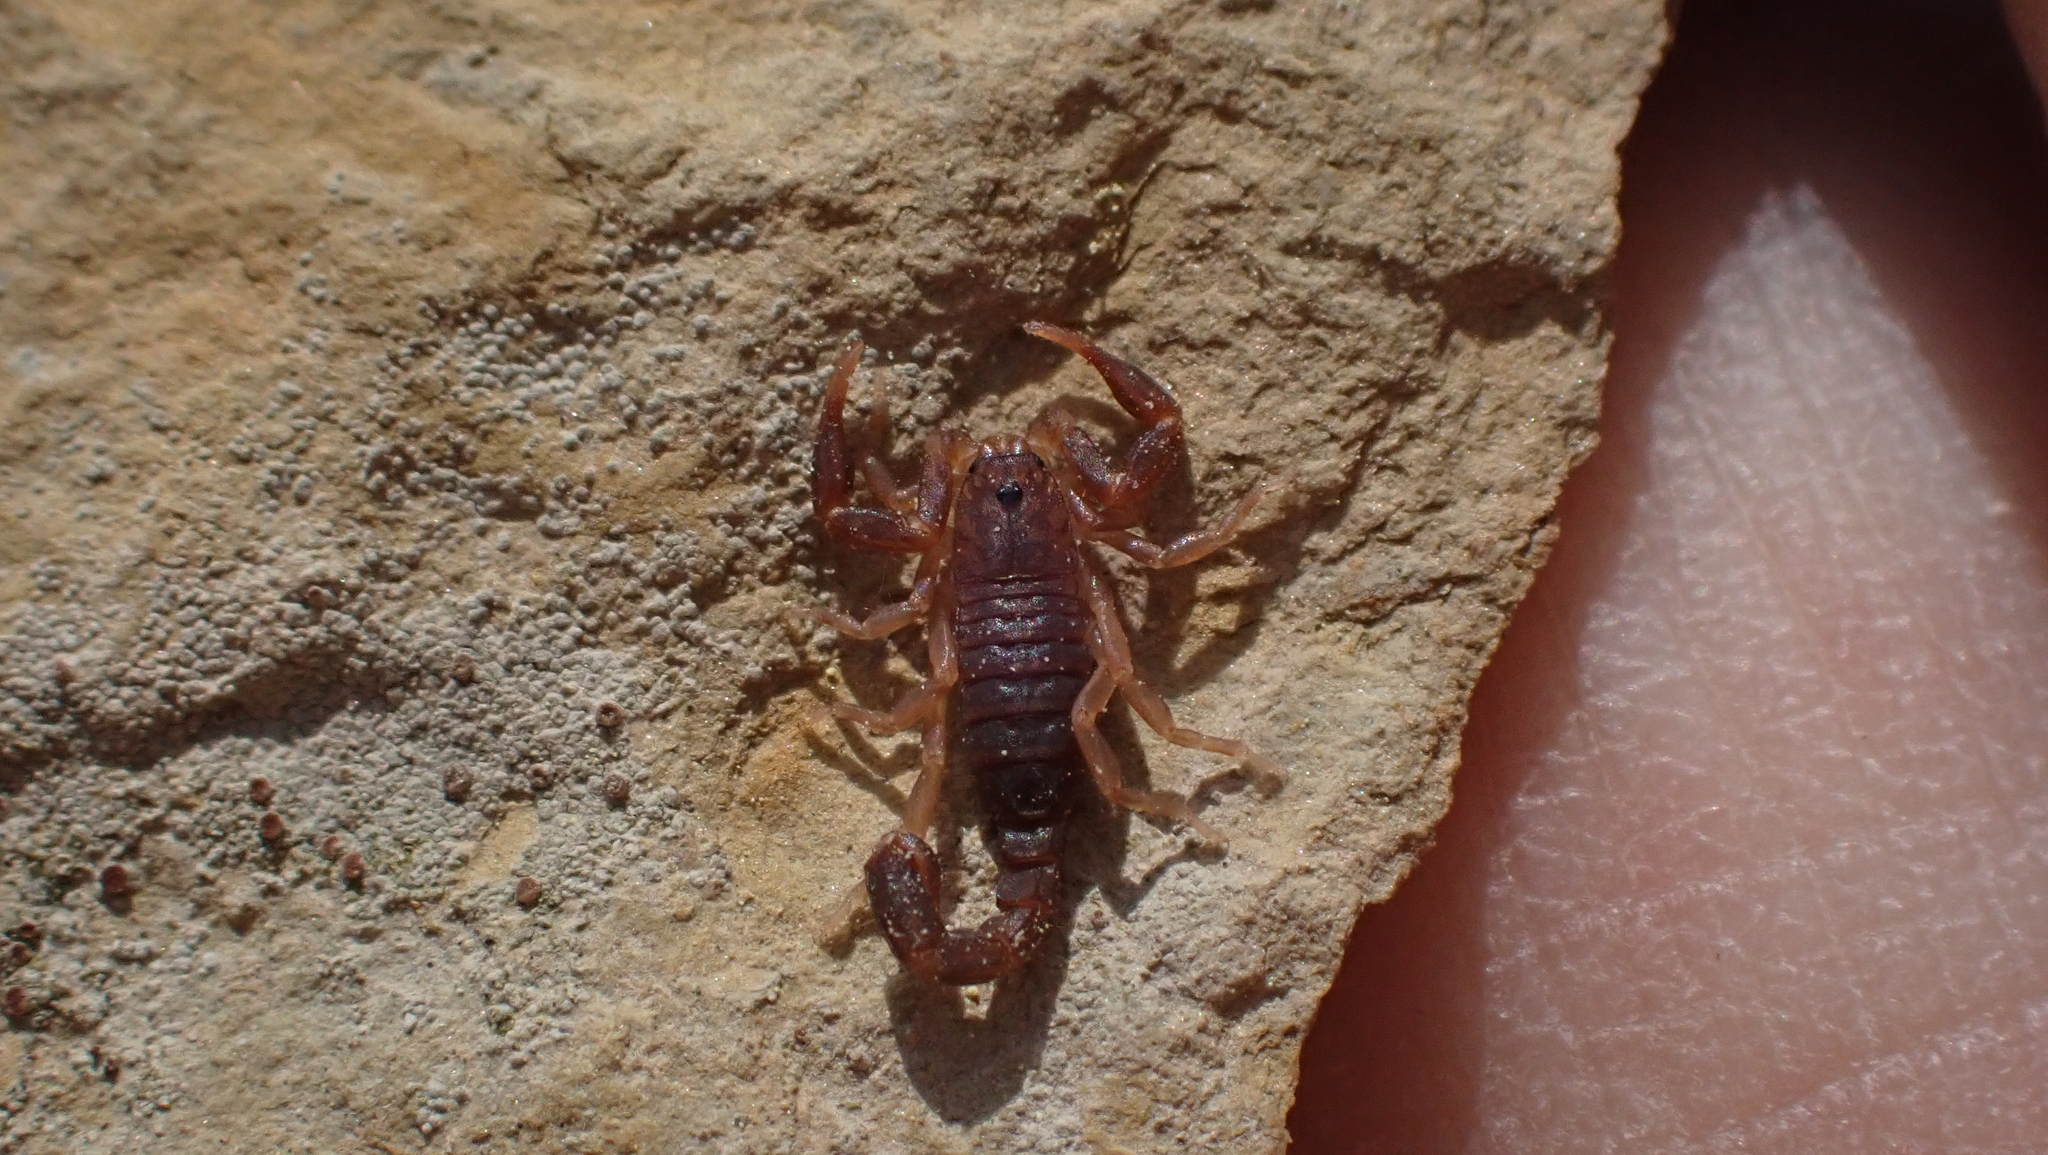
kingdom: Animalia
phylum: Arthropoda
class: Arachnida
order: Scorpiones
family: Vaejovidae
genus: Vaejovis
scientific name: Vaejovis carolinianus
